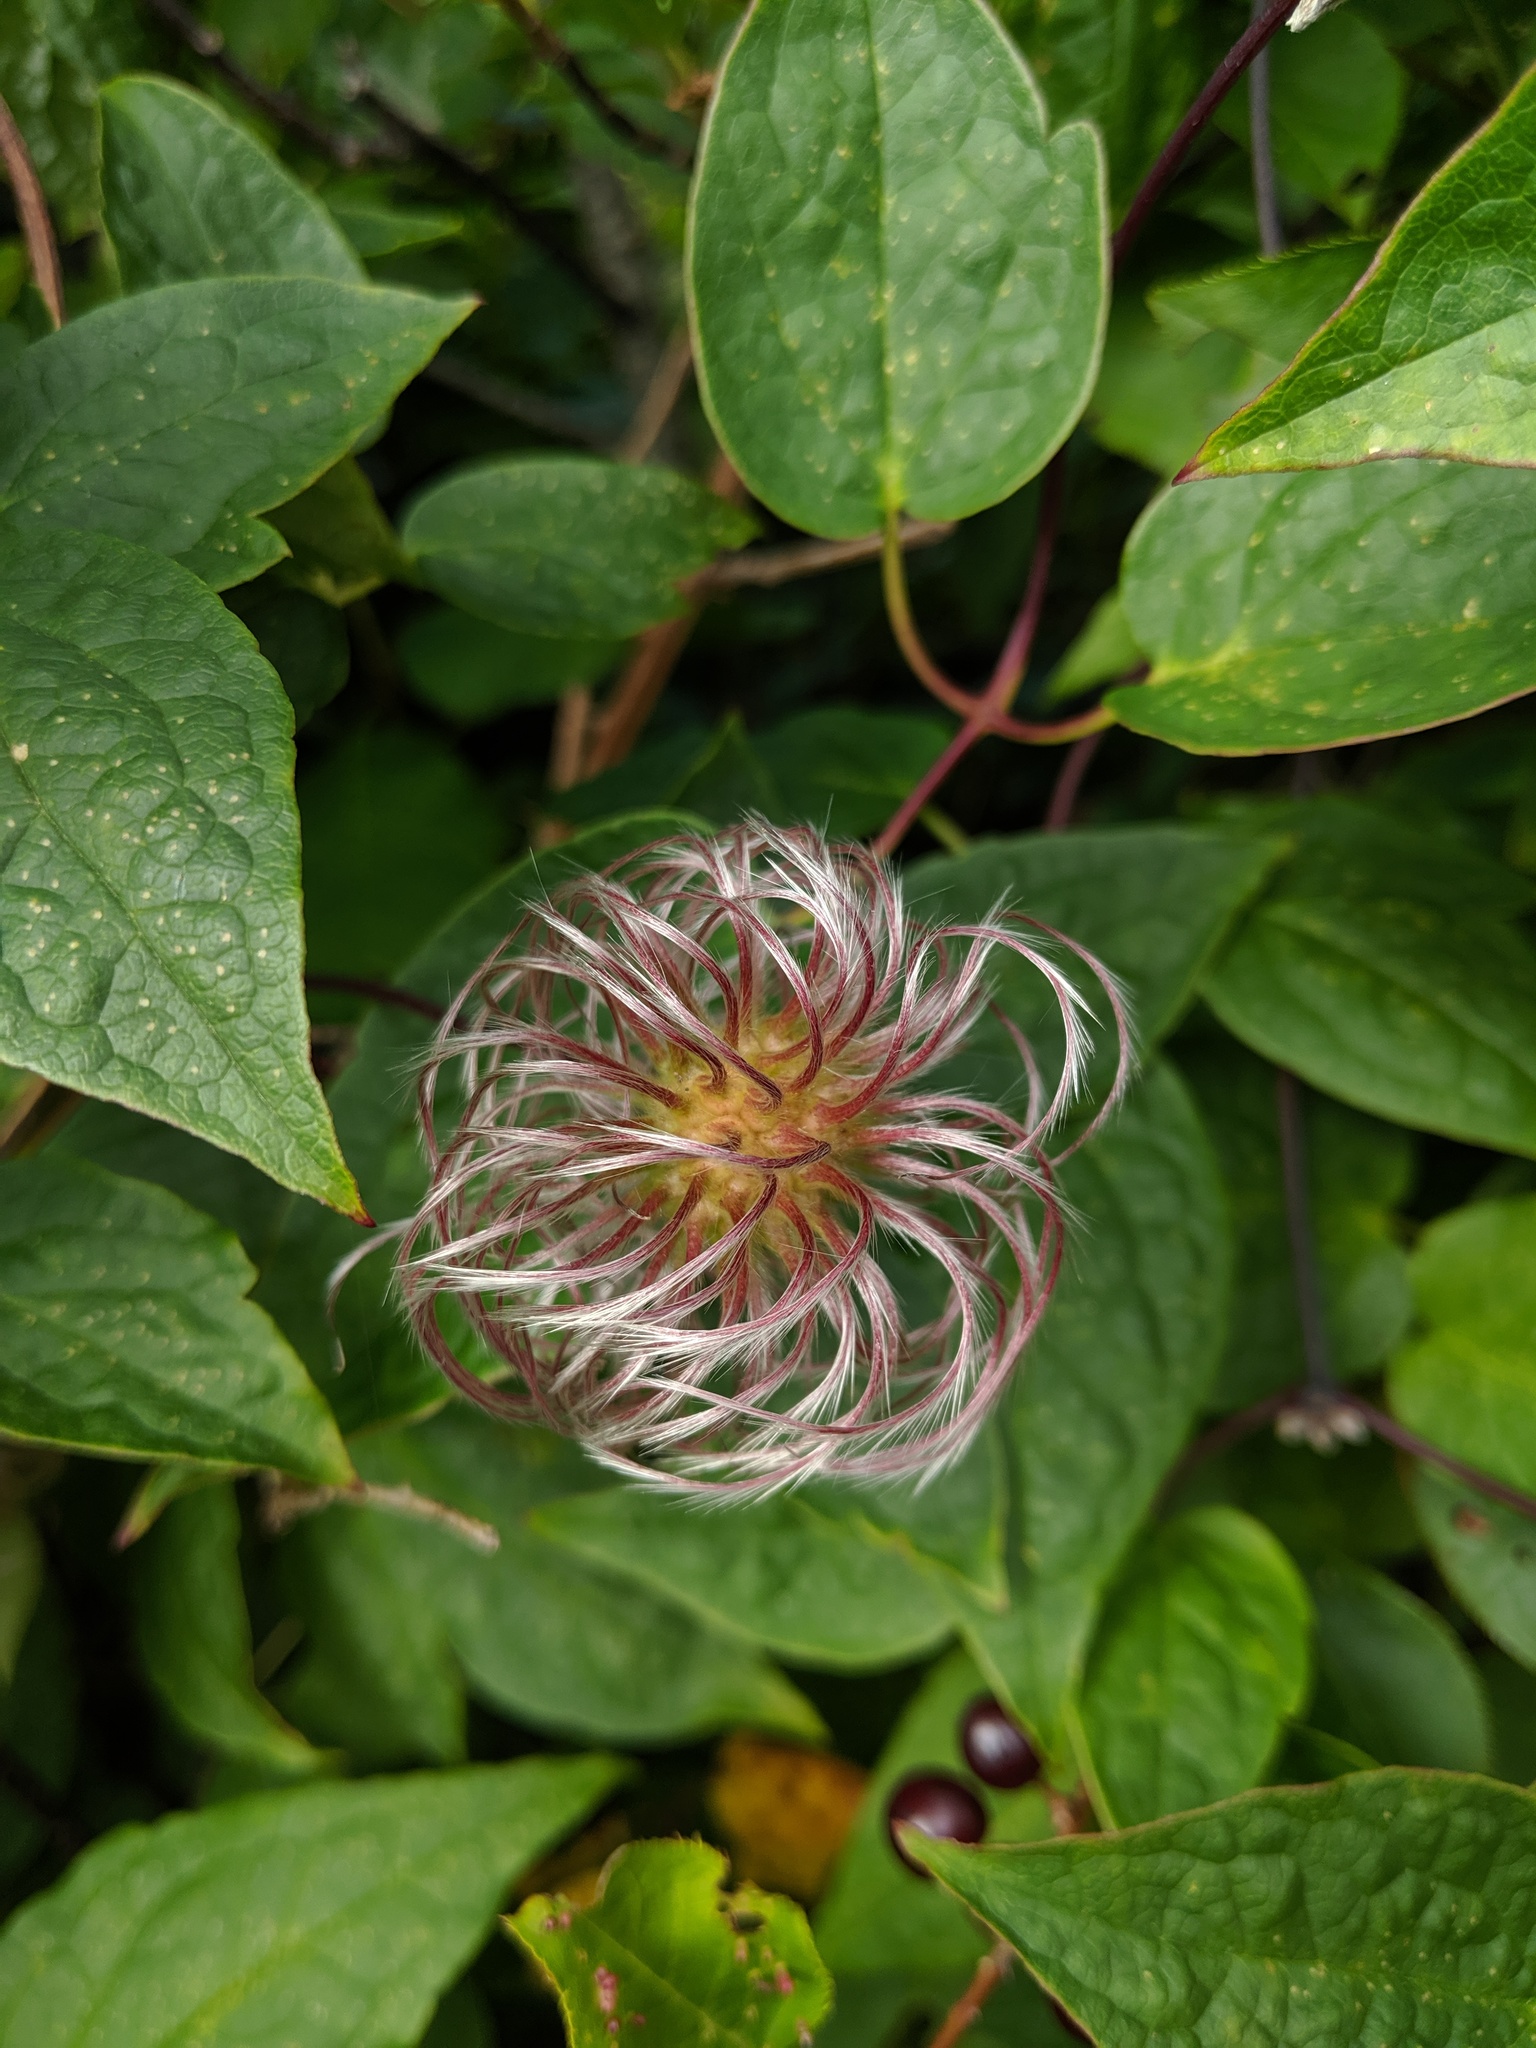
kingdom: Plantae
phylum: Tracheophyta
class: Magnoliopsida
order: Ranunculales
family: Ranunculaceae
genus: Clematis
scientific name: Clematis occidentalis
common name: Purple clematis
